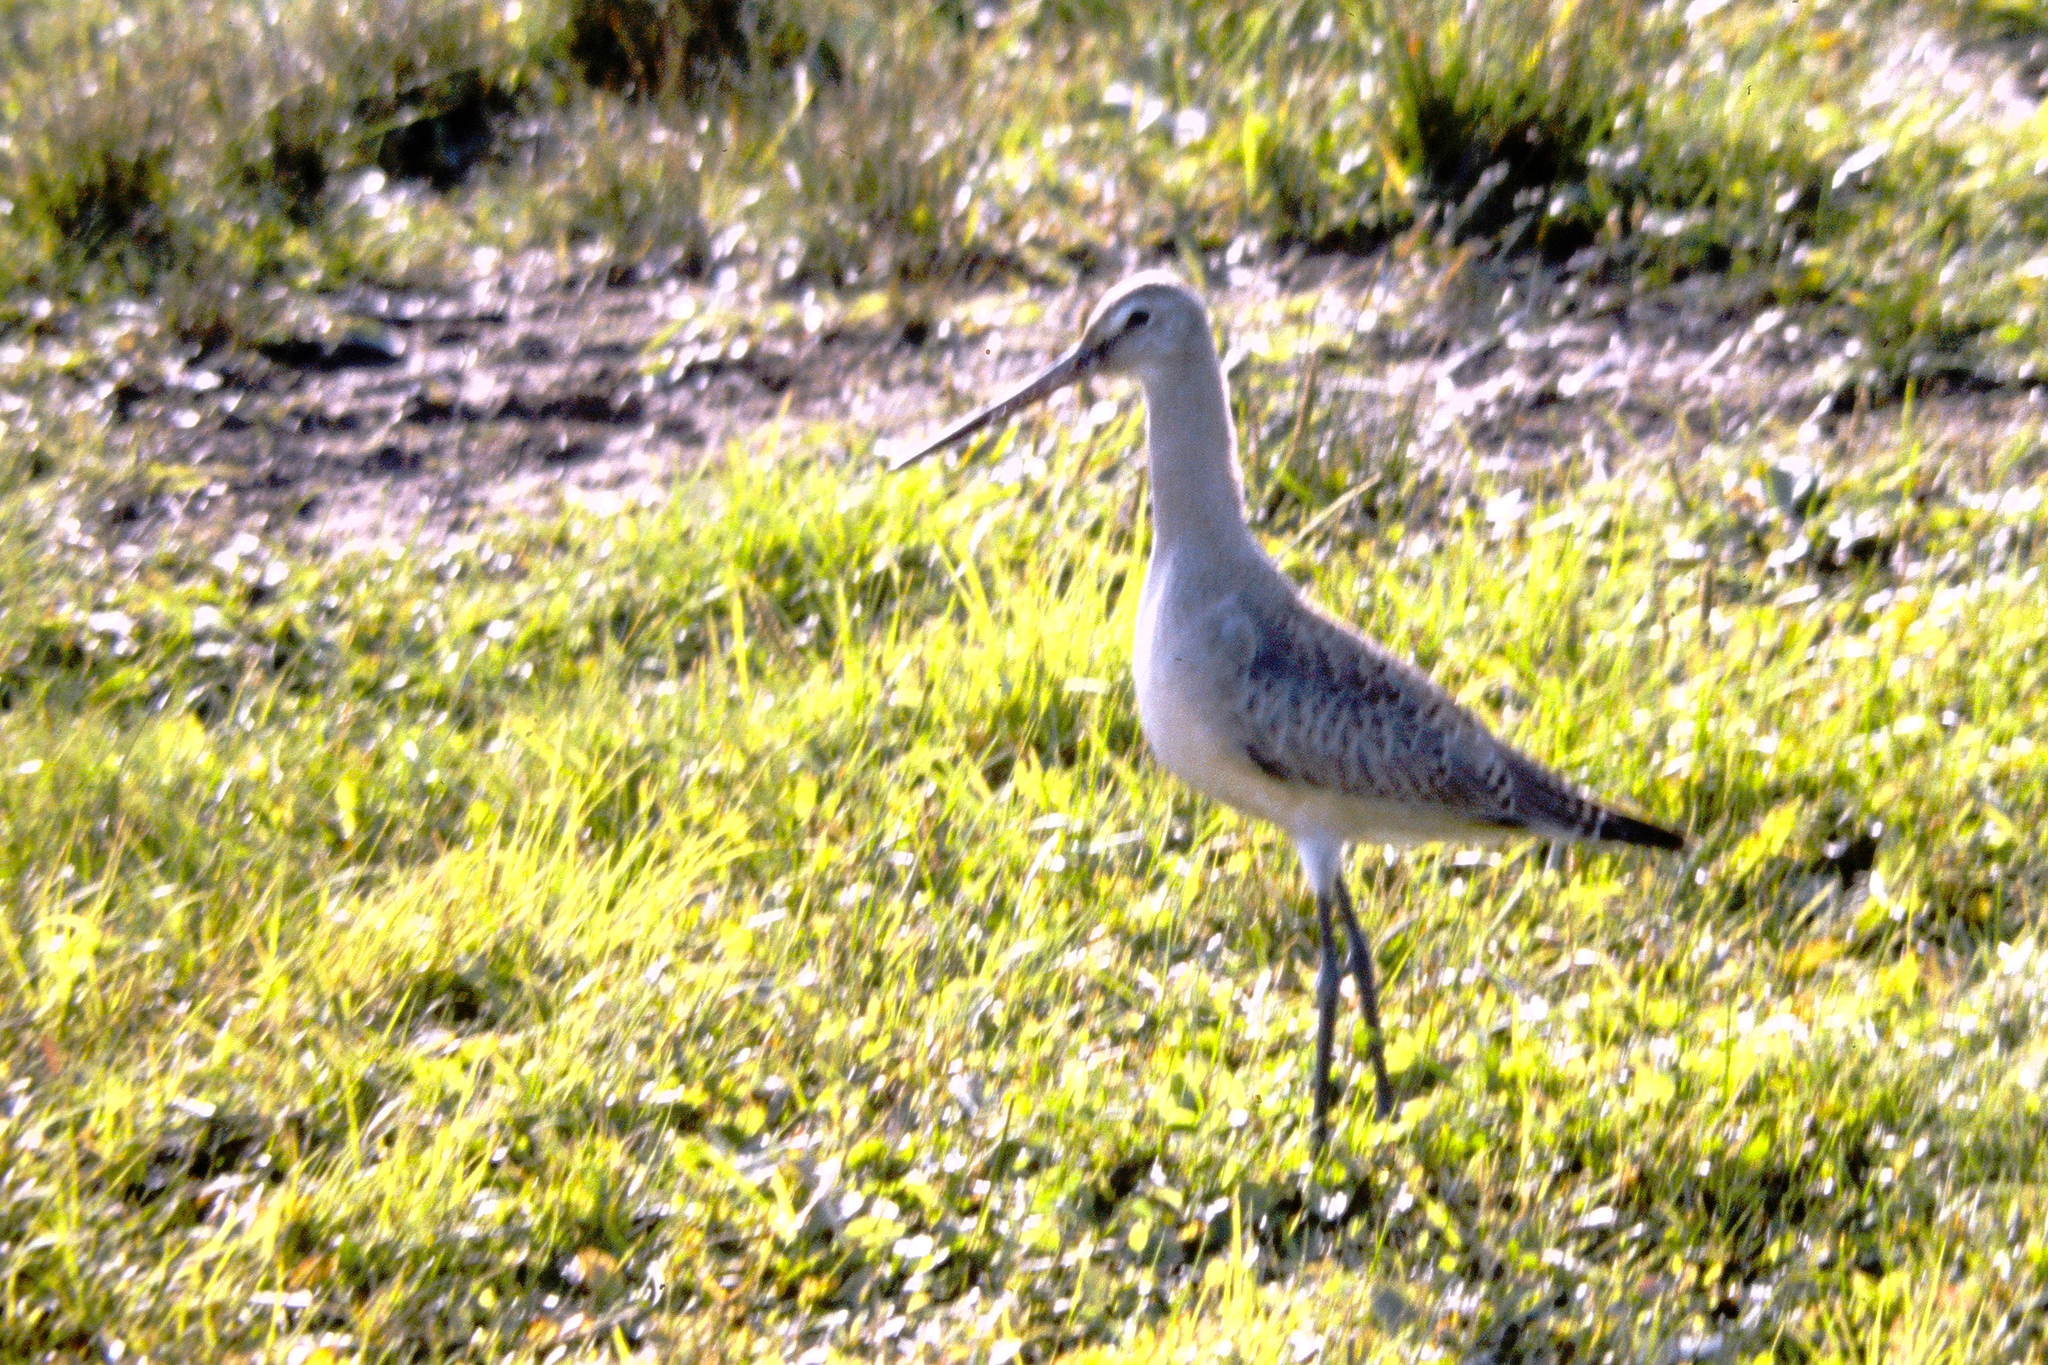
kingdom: Animalia
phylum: Chordata
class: Aves
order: Charadriiformes
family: Scolopacidae
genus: Limosa
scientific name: Limosa haemastica
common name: Hudsonian godwit
